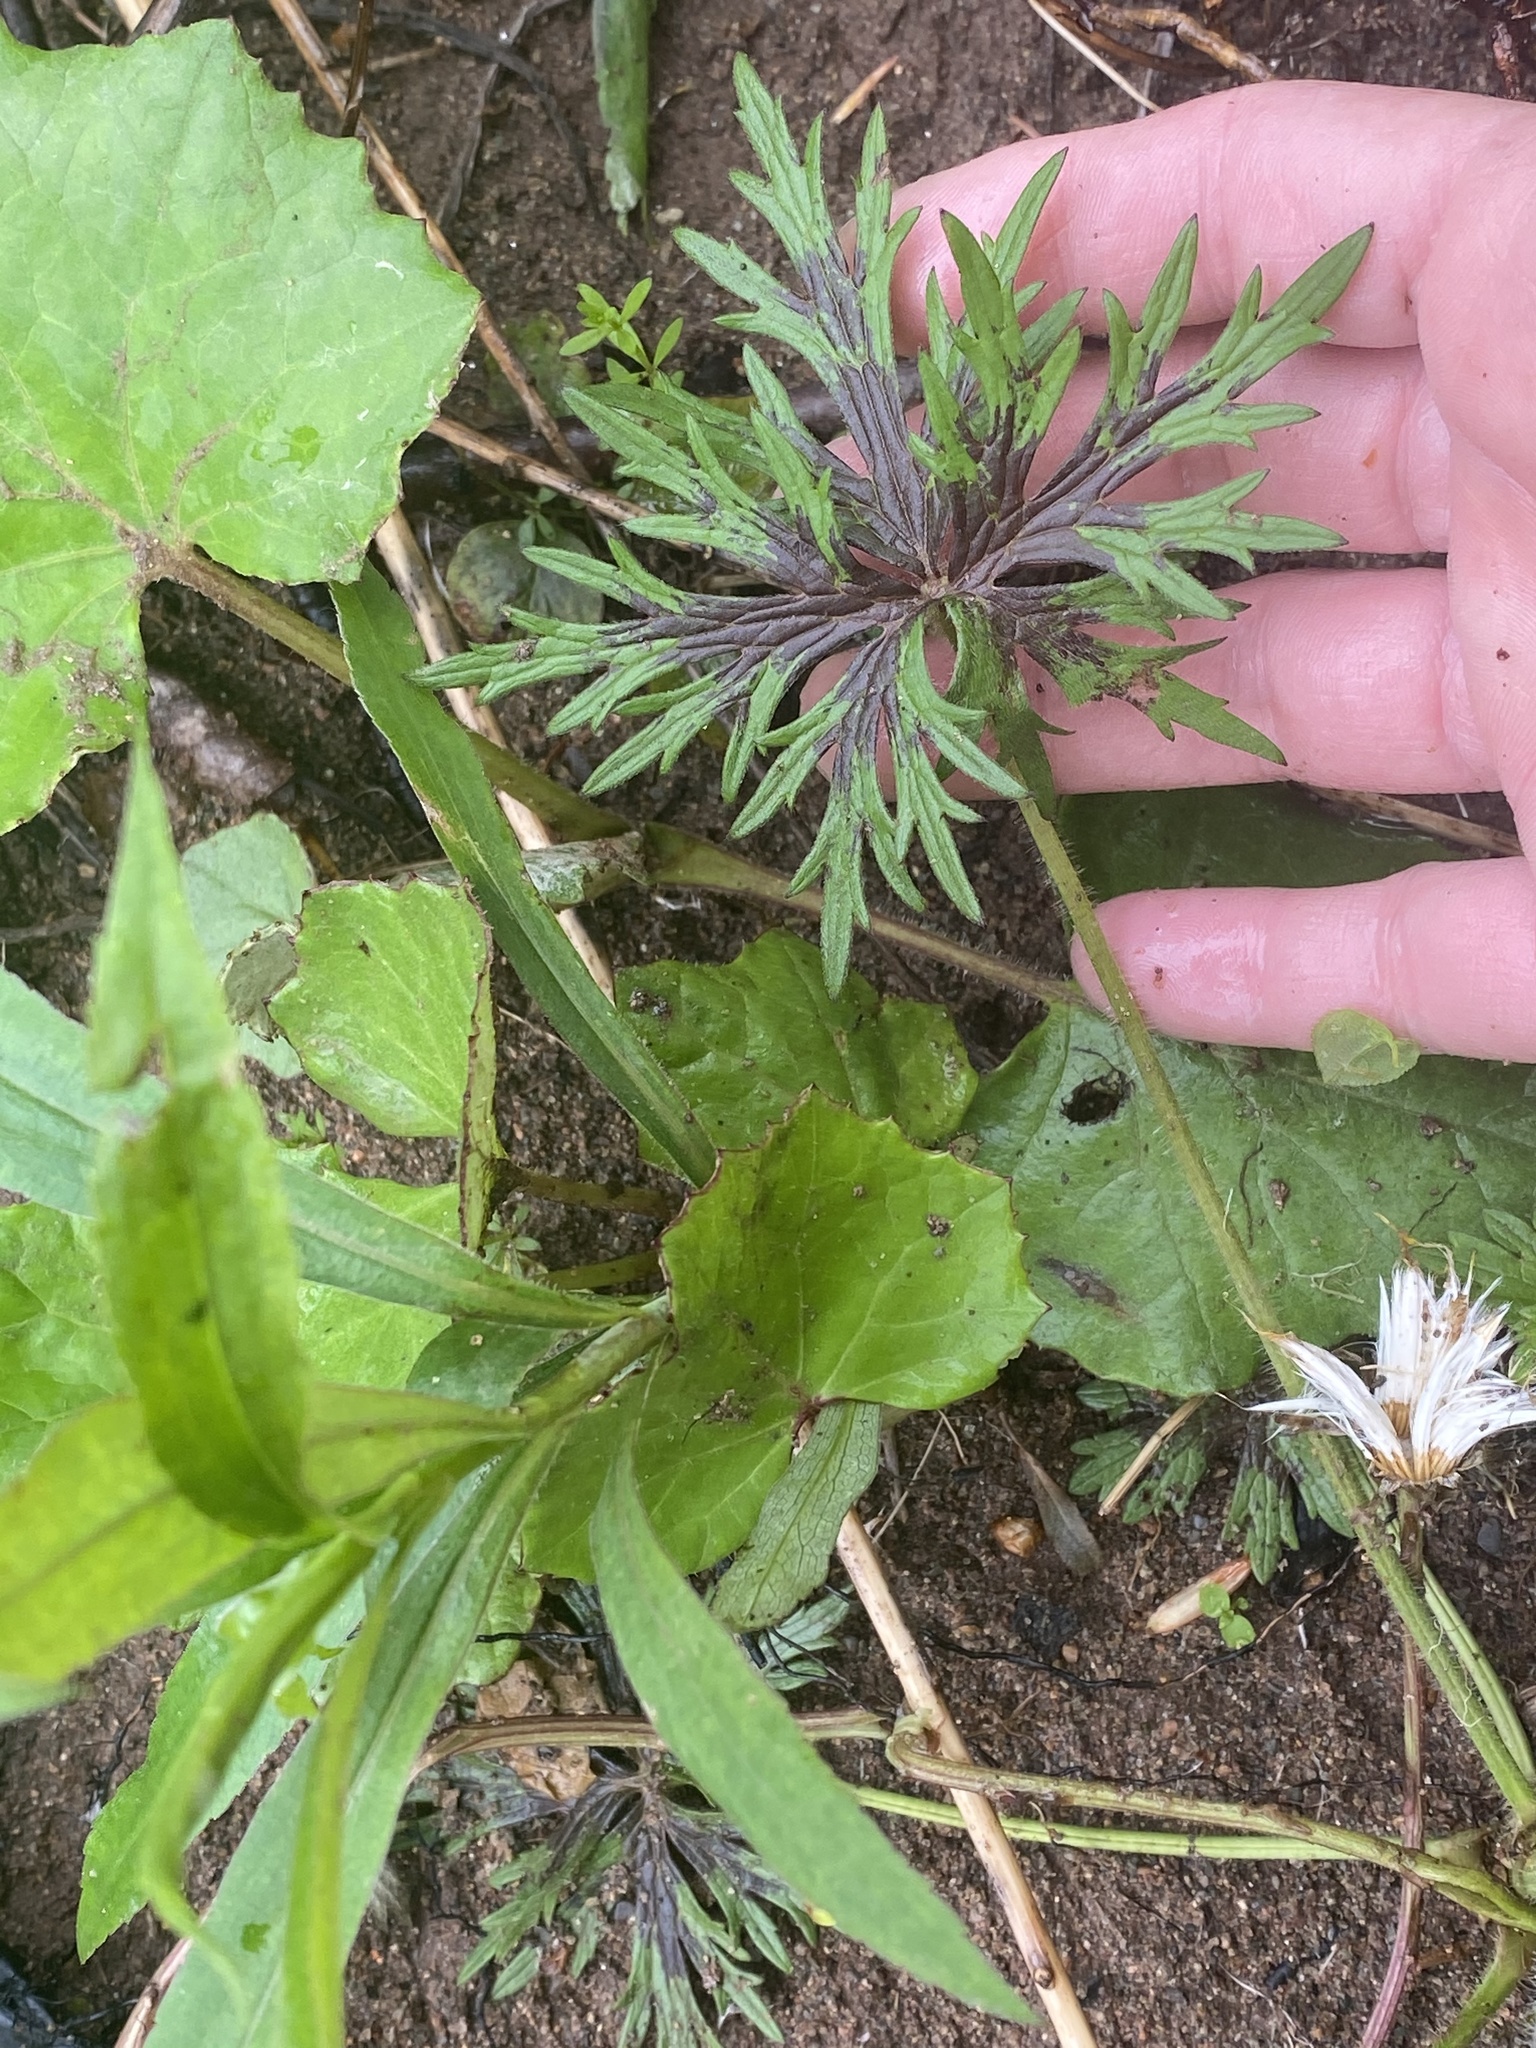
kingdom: Plantae
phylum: Tracheophyta
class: Magnoliopsida
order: Ranunculales
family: Ranunculaceae
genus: Ranunculus
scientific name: Ranunculus acris
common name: Meadow buttercup
